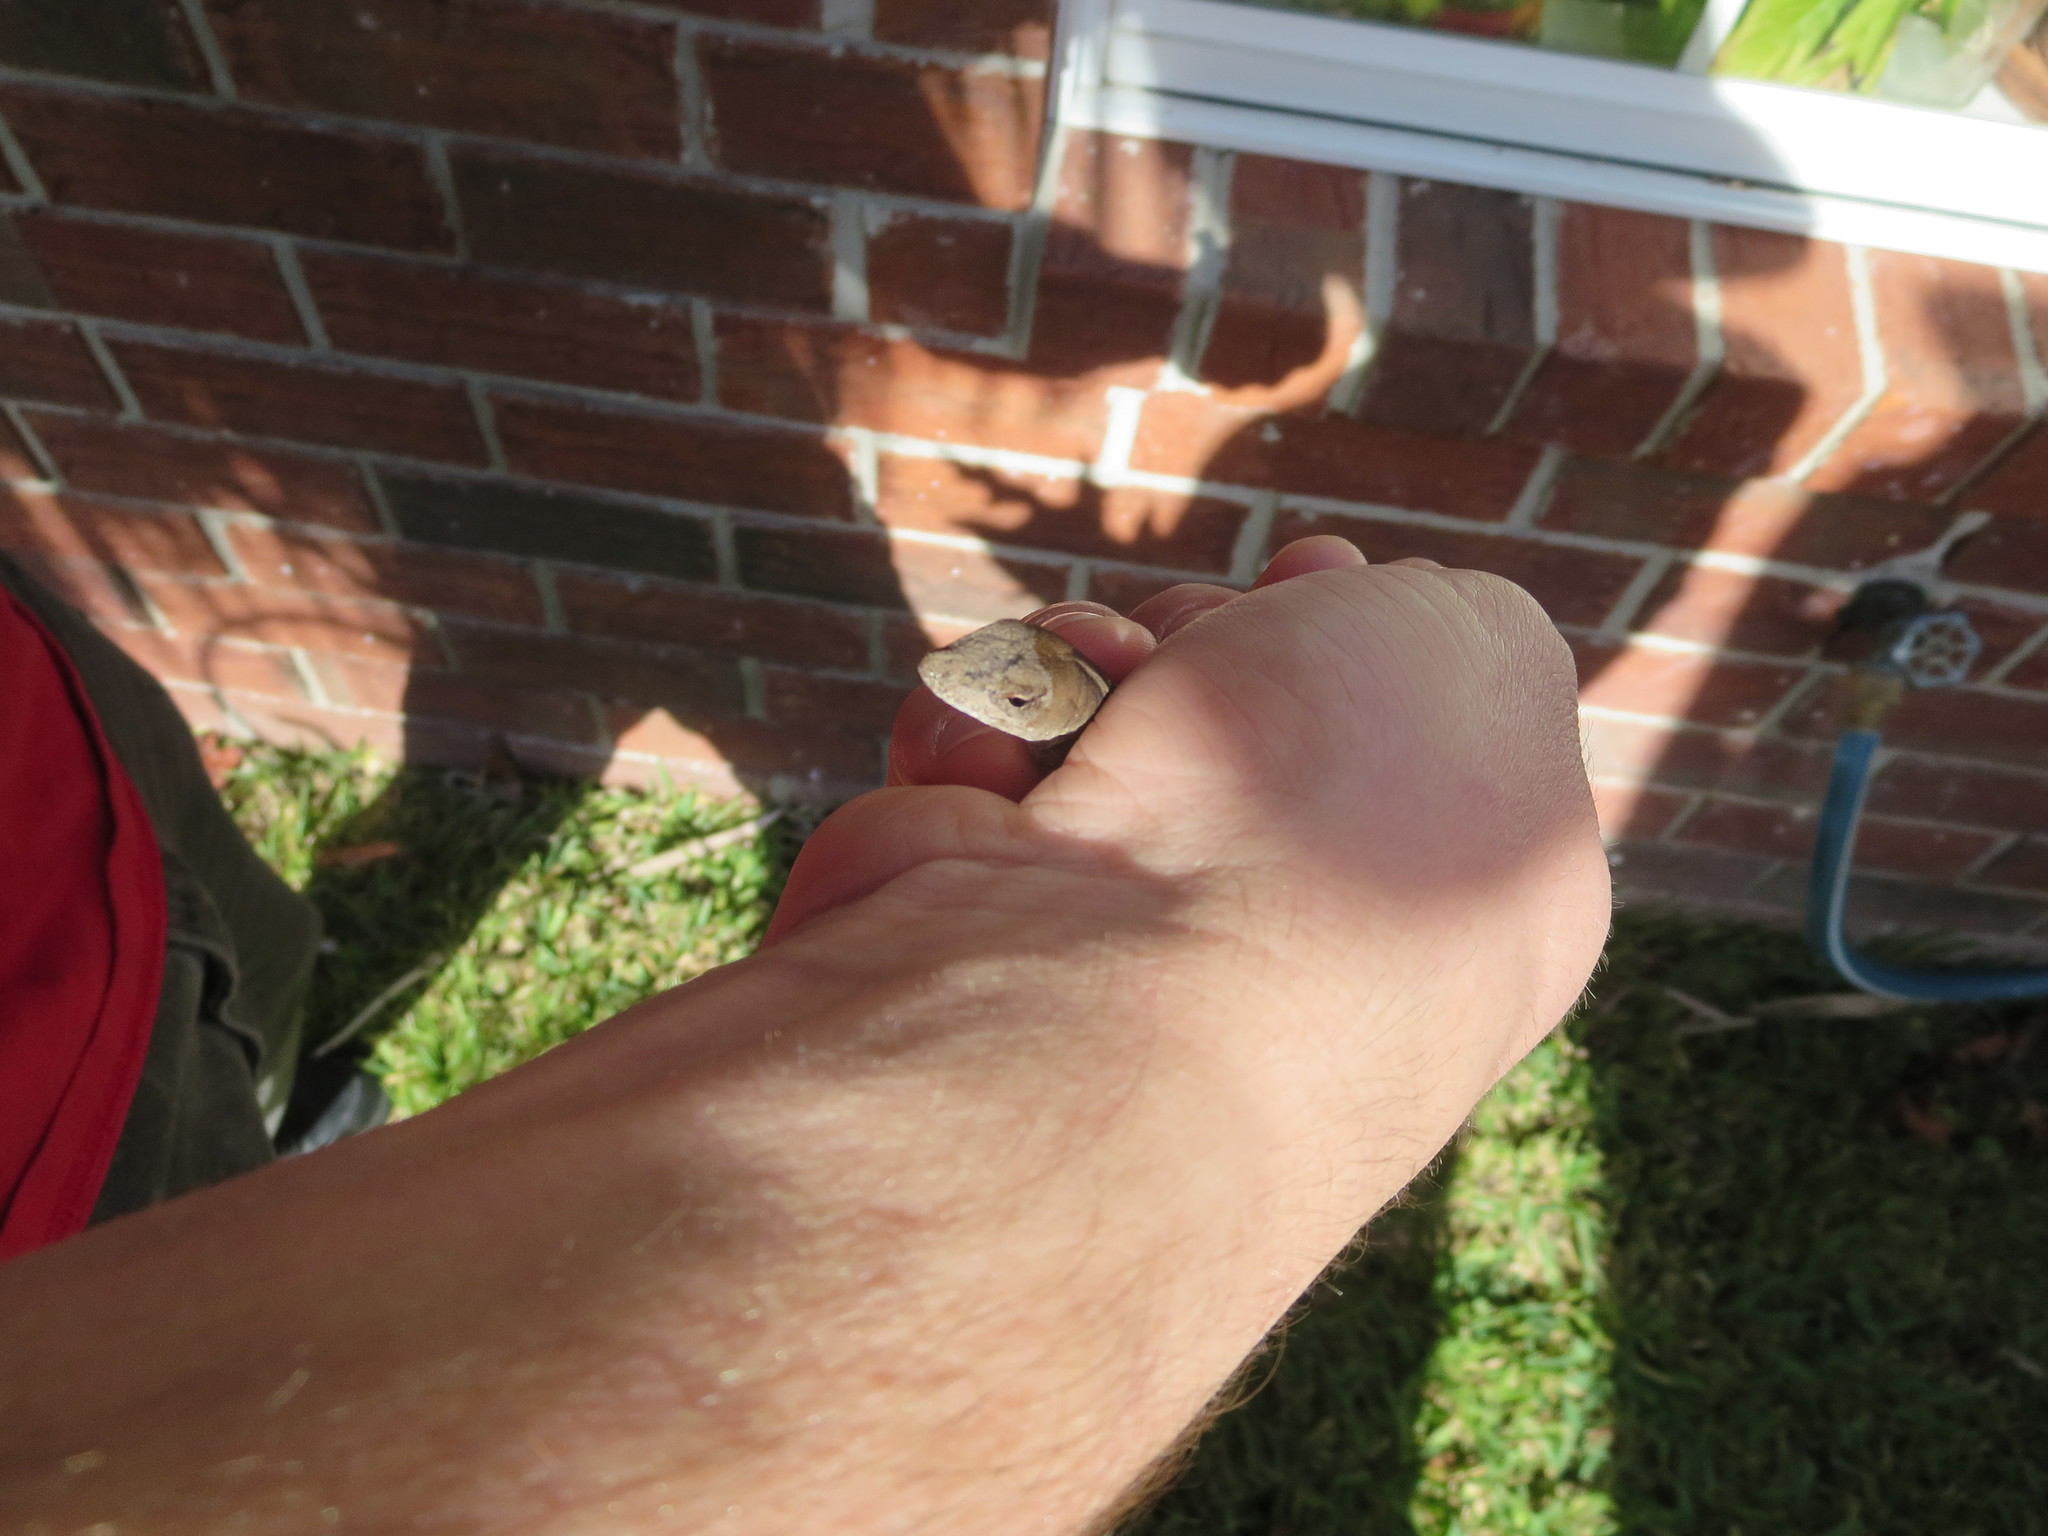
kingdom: Animalia
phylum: Chordata
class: Squamata
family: Dactyloidae
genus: Anolis
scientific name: Anolis sagrei
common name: Brown anole
